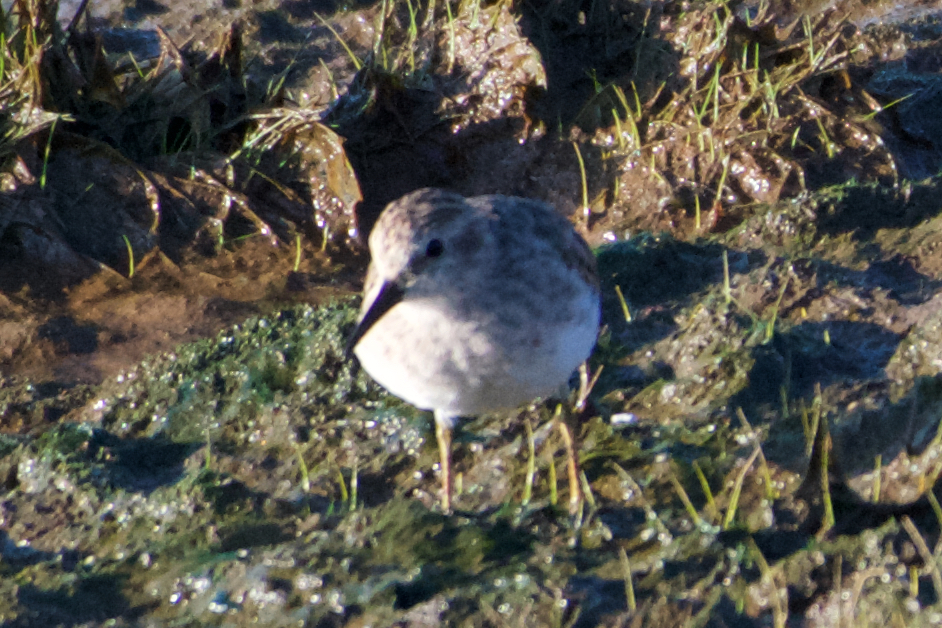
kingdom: Animalia
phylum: Chordata
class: Aves
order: Charadriiformes
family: Scolopacidae
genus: Calidris
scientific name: Calidris minutilla
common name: Least sandpiper
